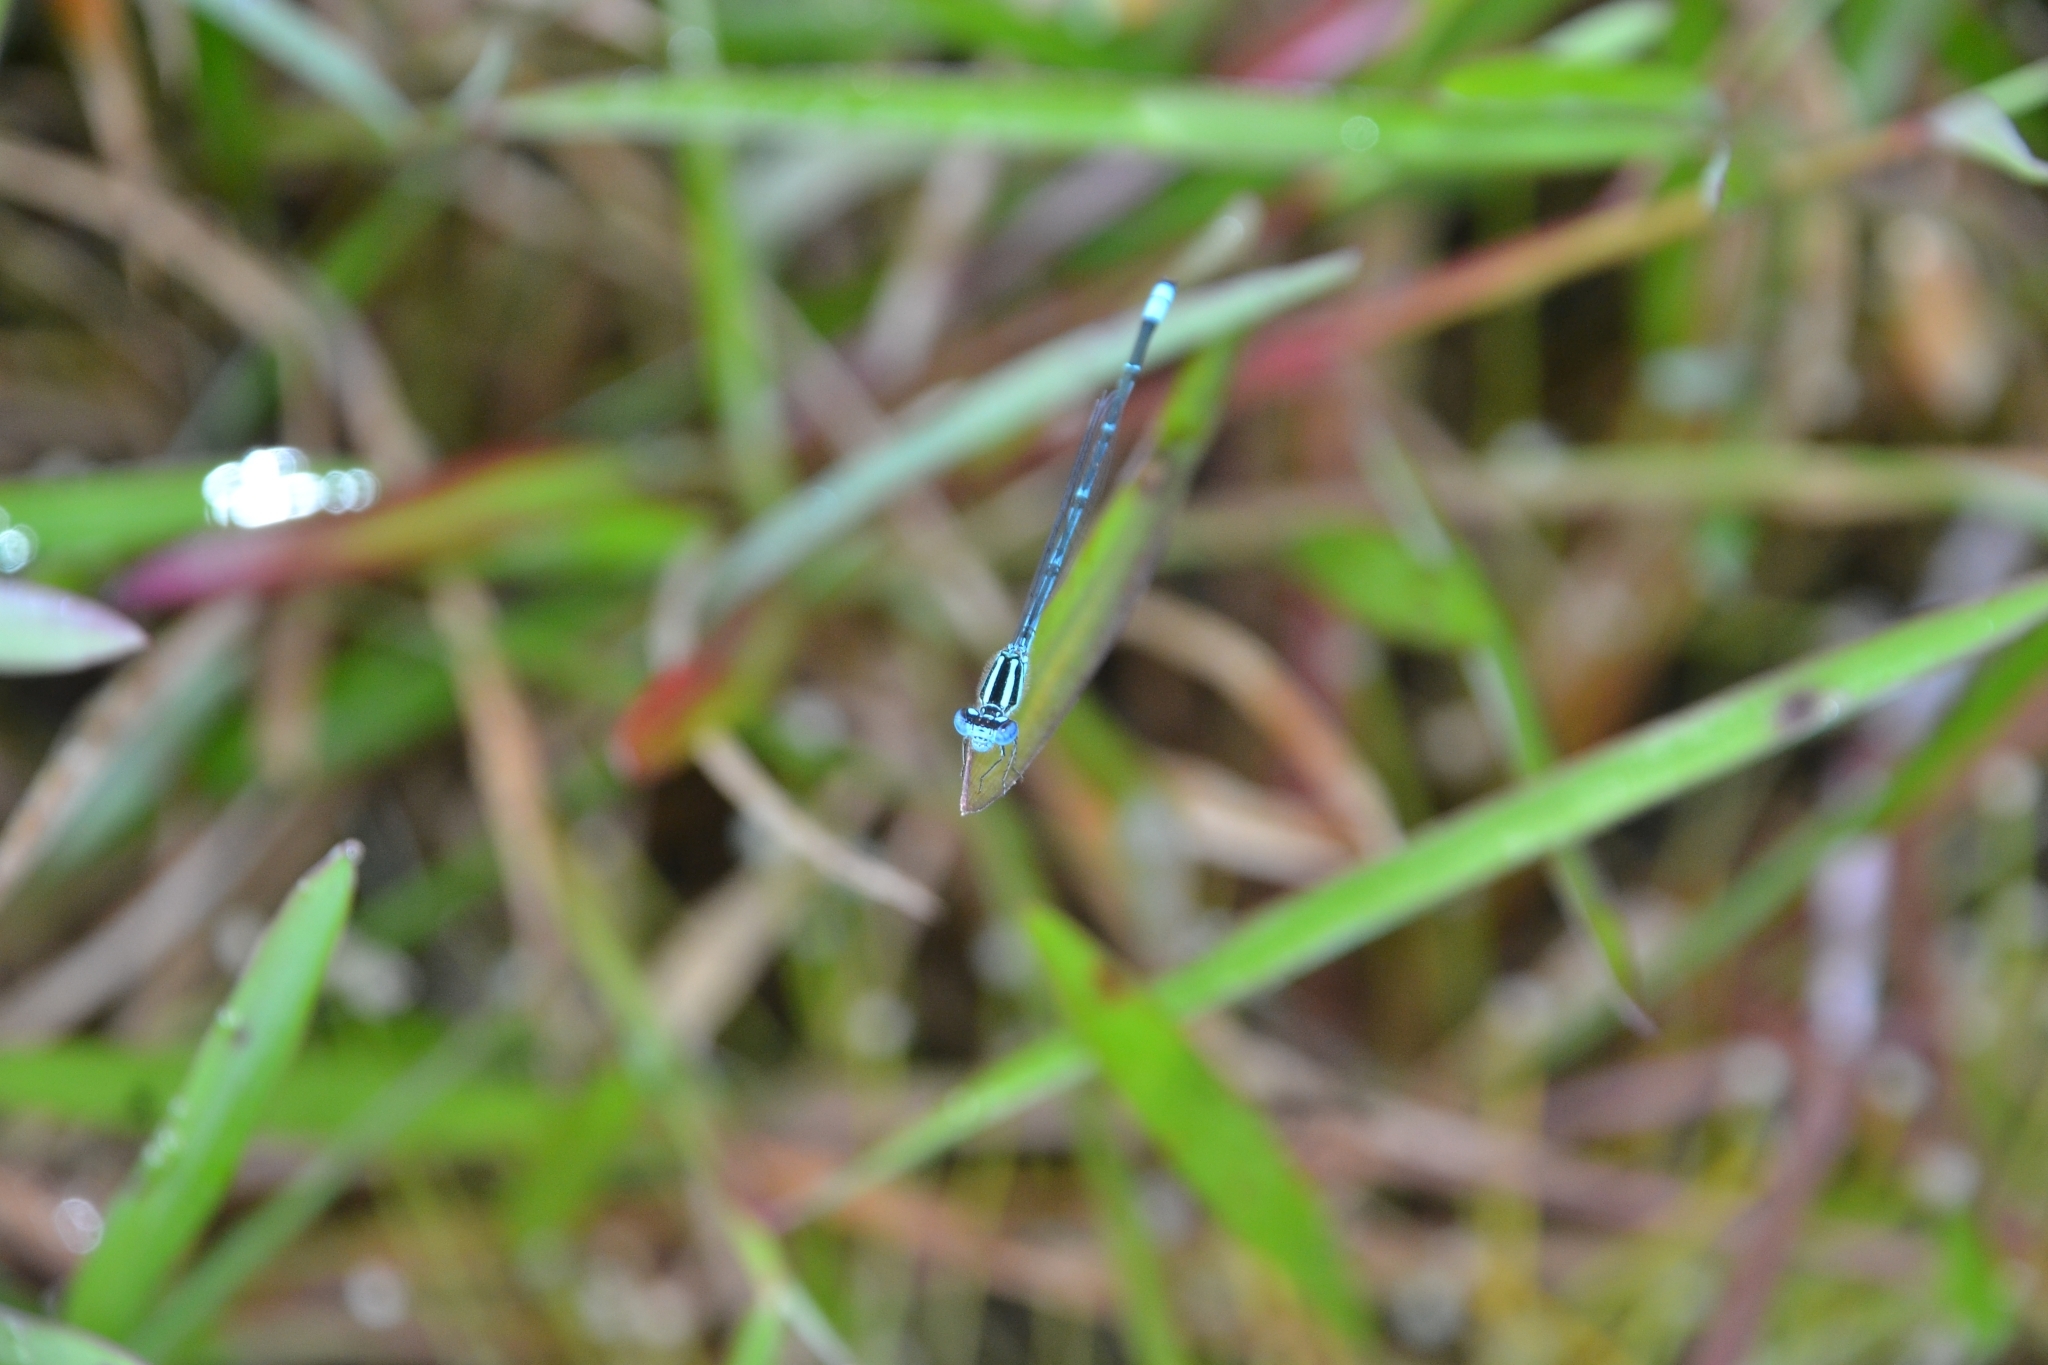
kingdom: Animalia
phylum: Arthropoda
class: Insecta
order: Odonata
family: Coenagrionidae
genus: Pseudagrion
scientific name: Pseudagrion malabaricum
